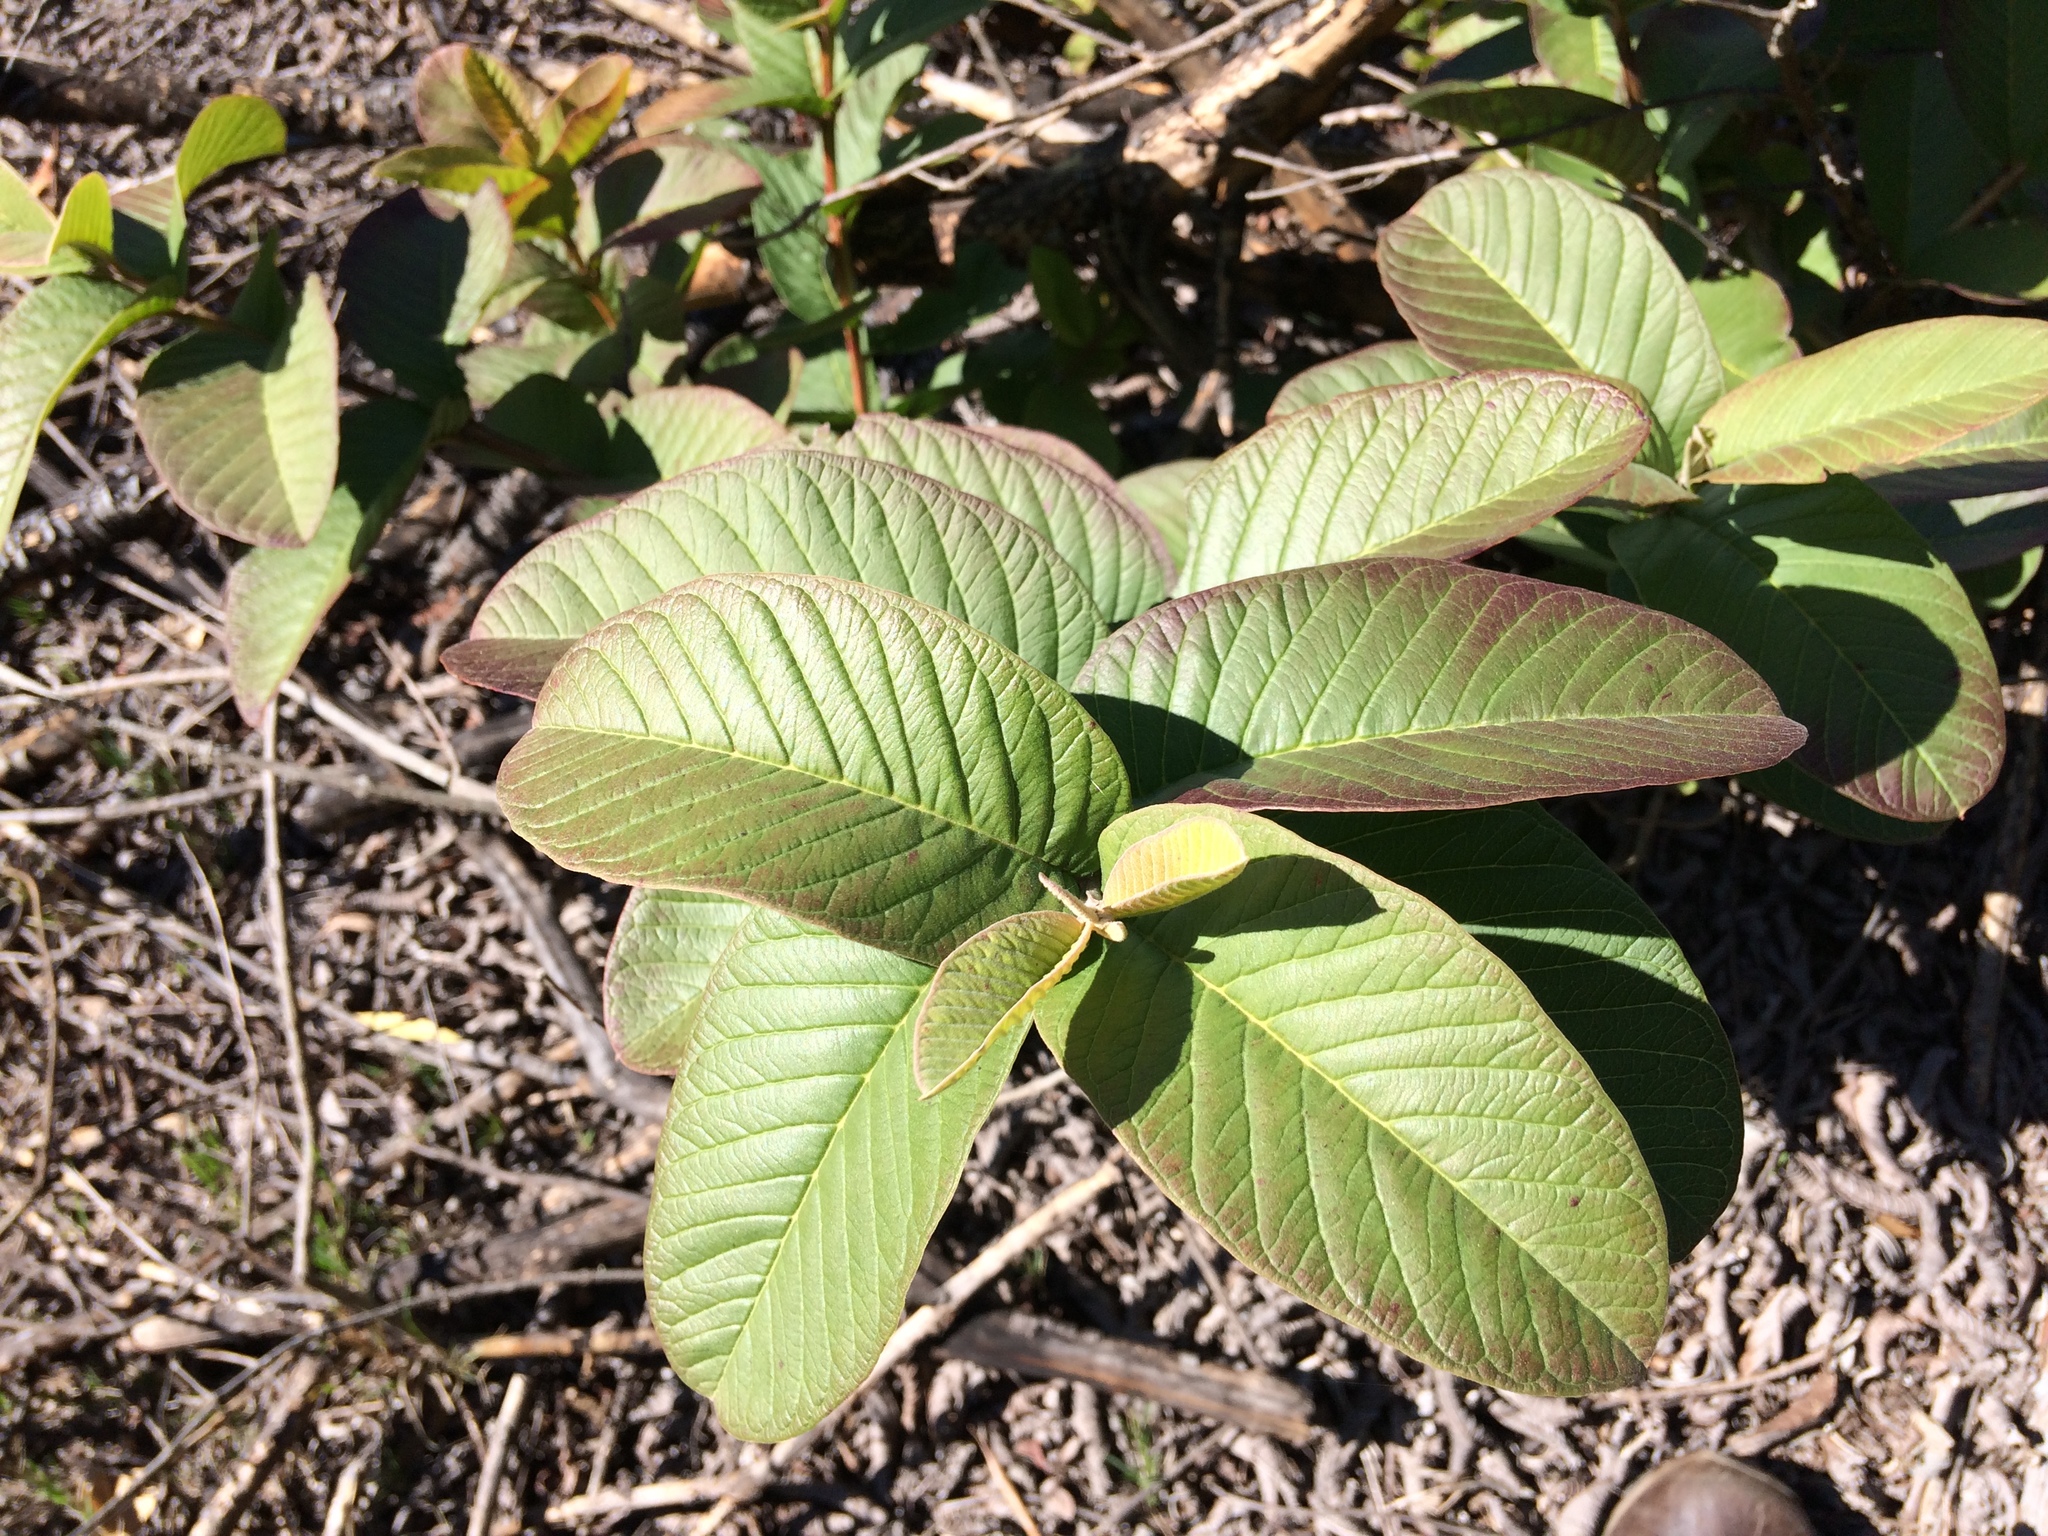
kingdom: Plantae
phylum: Tracheophyta
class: Magnoliopsida
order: Myrtales
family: Myrtaceae
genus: Psidium
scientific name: Psidium guajava
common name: Guava
